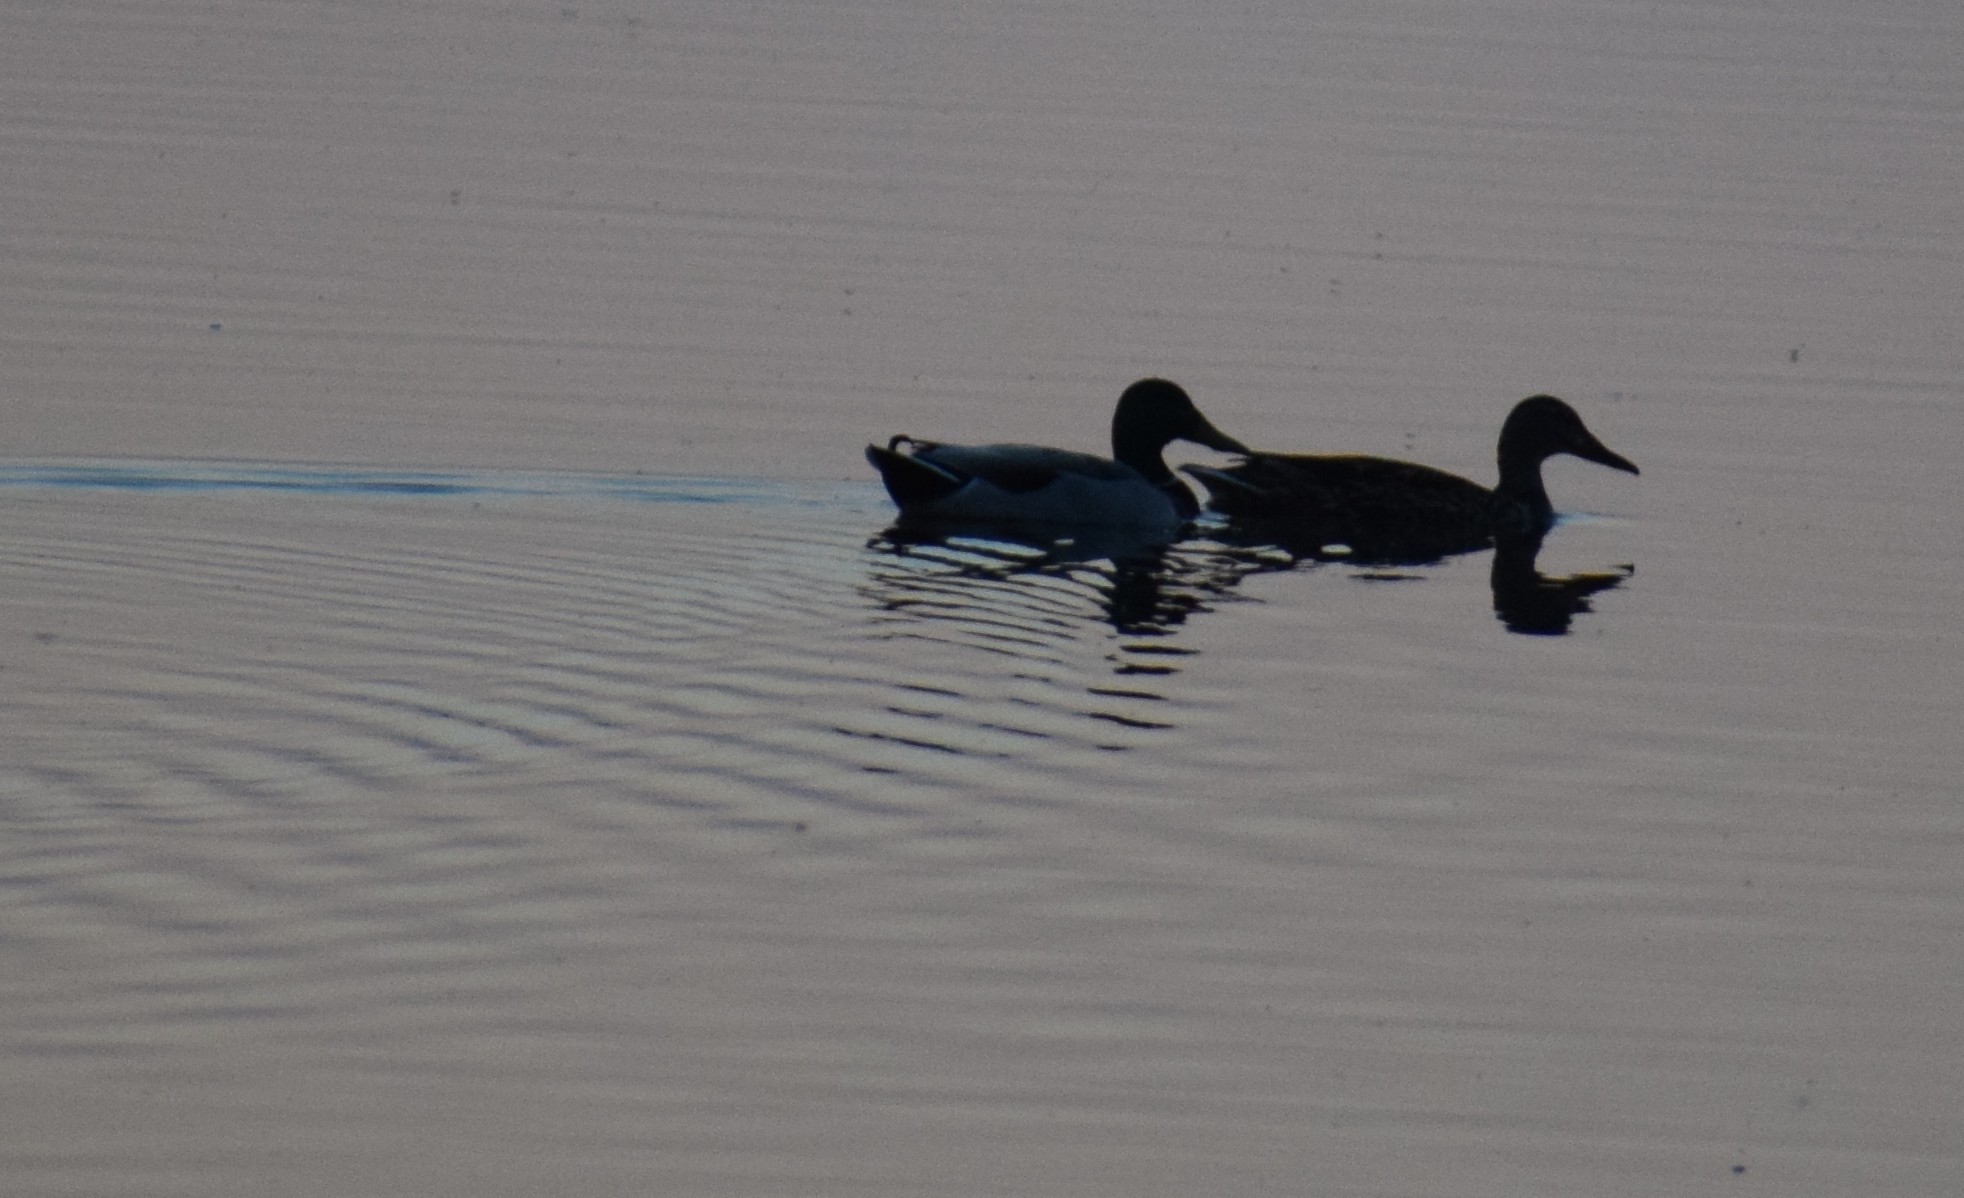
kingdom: Animalia
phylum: Chordata
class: Aves
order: Anseriformes
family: Anatidae
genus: Spatula
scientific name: Spatula clypeata
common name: Northern shoveler
